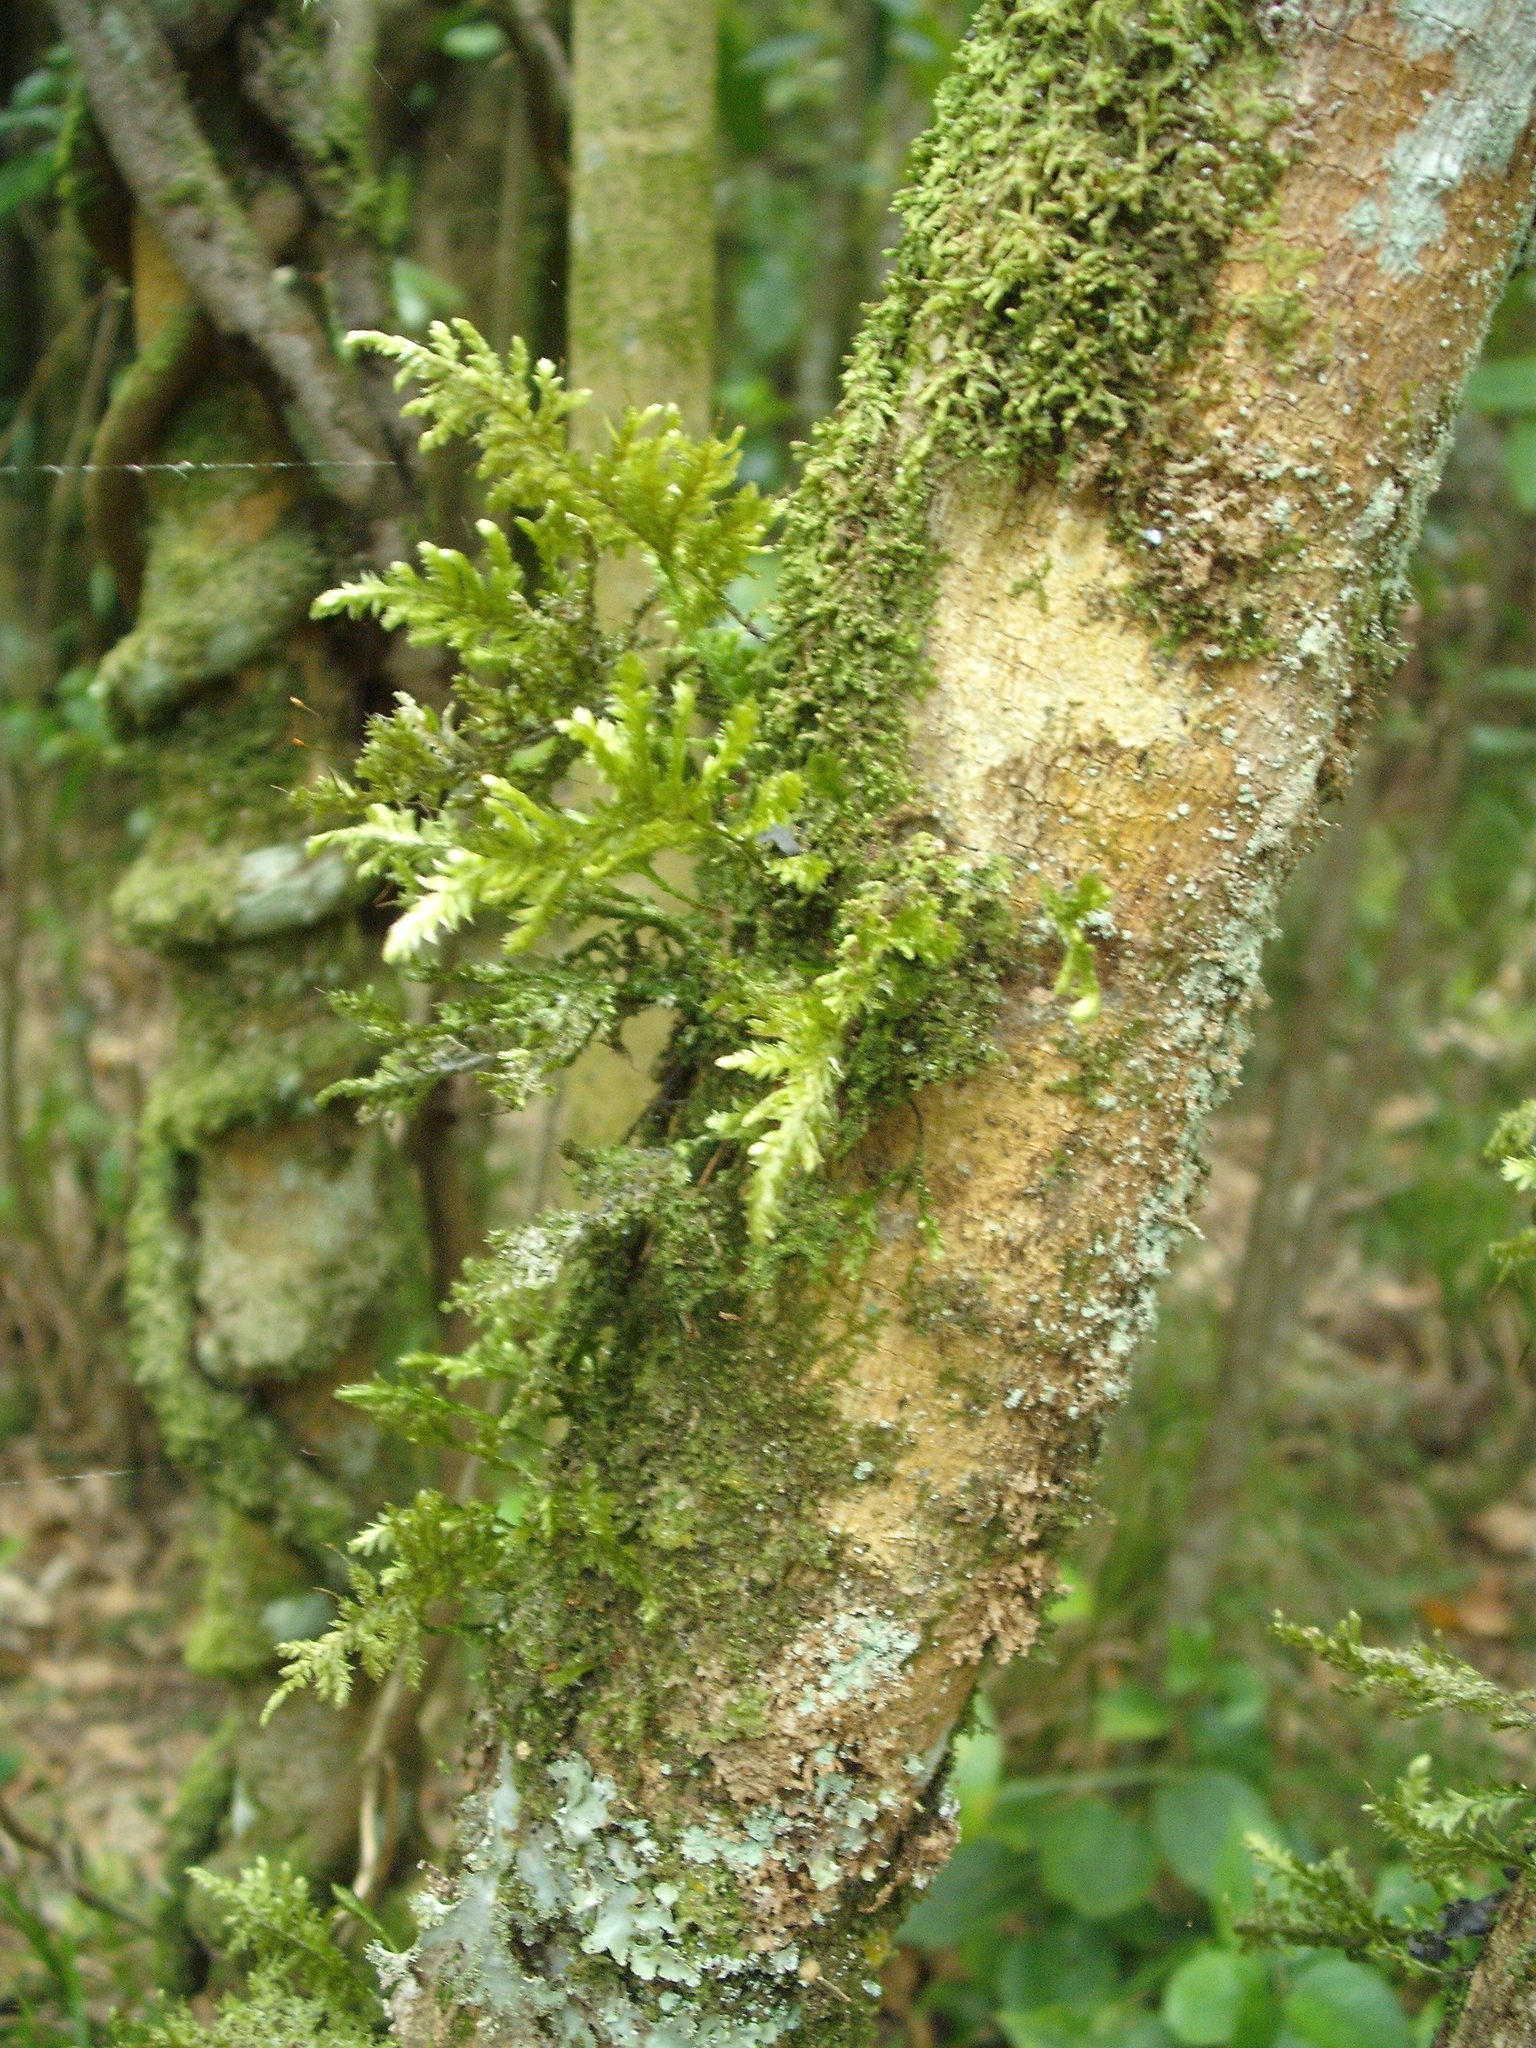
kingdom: Plantae
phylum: Bryophyta
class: Bryopsida
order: Hypnales
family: Trachylomataceae
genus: Trachyloma
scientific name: Trachyloma diversinerve
